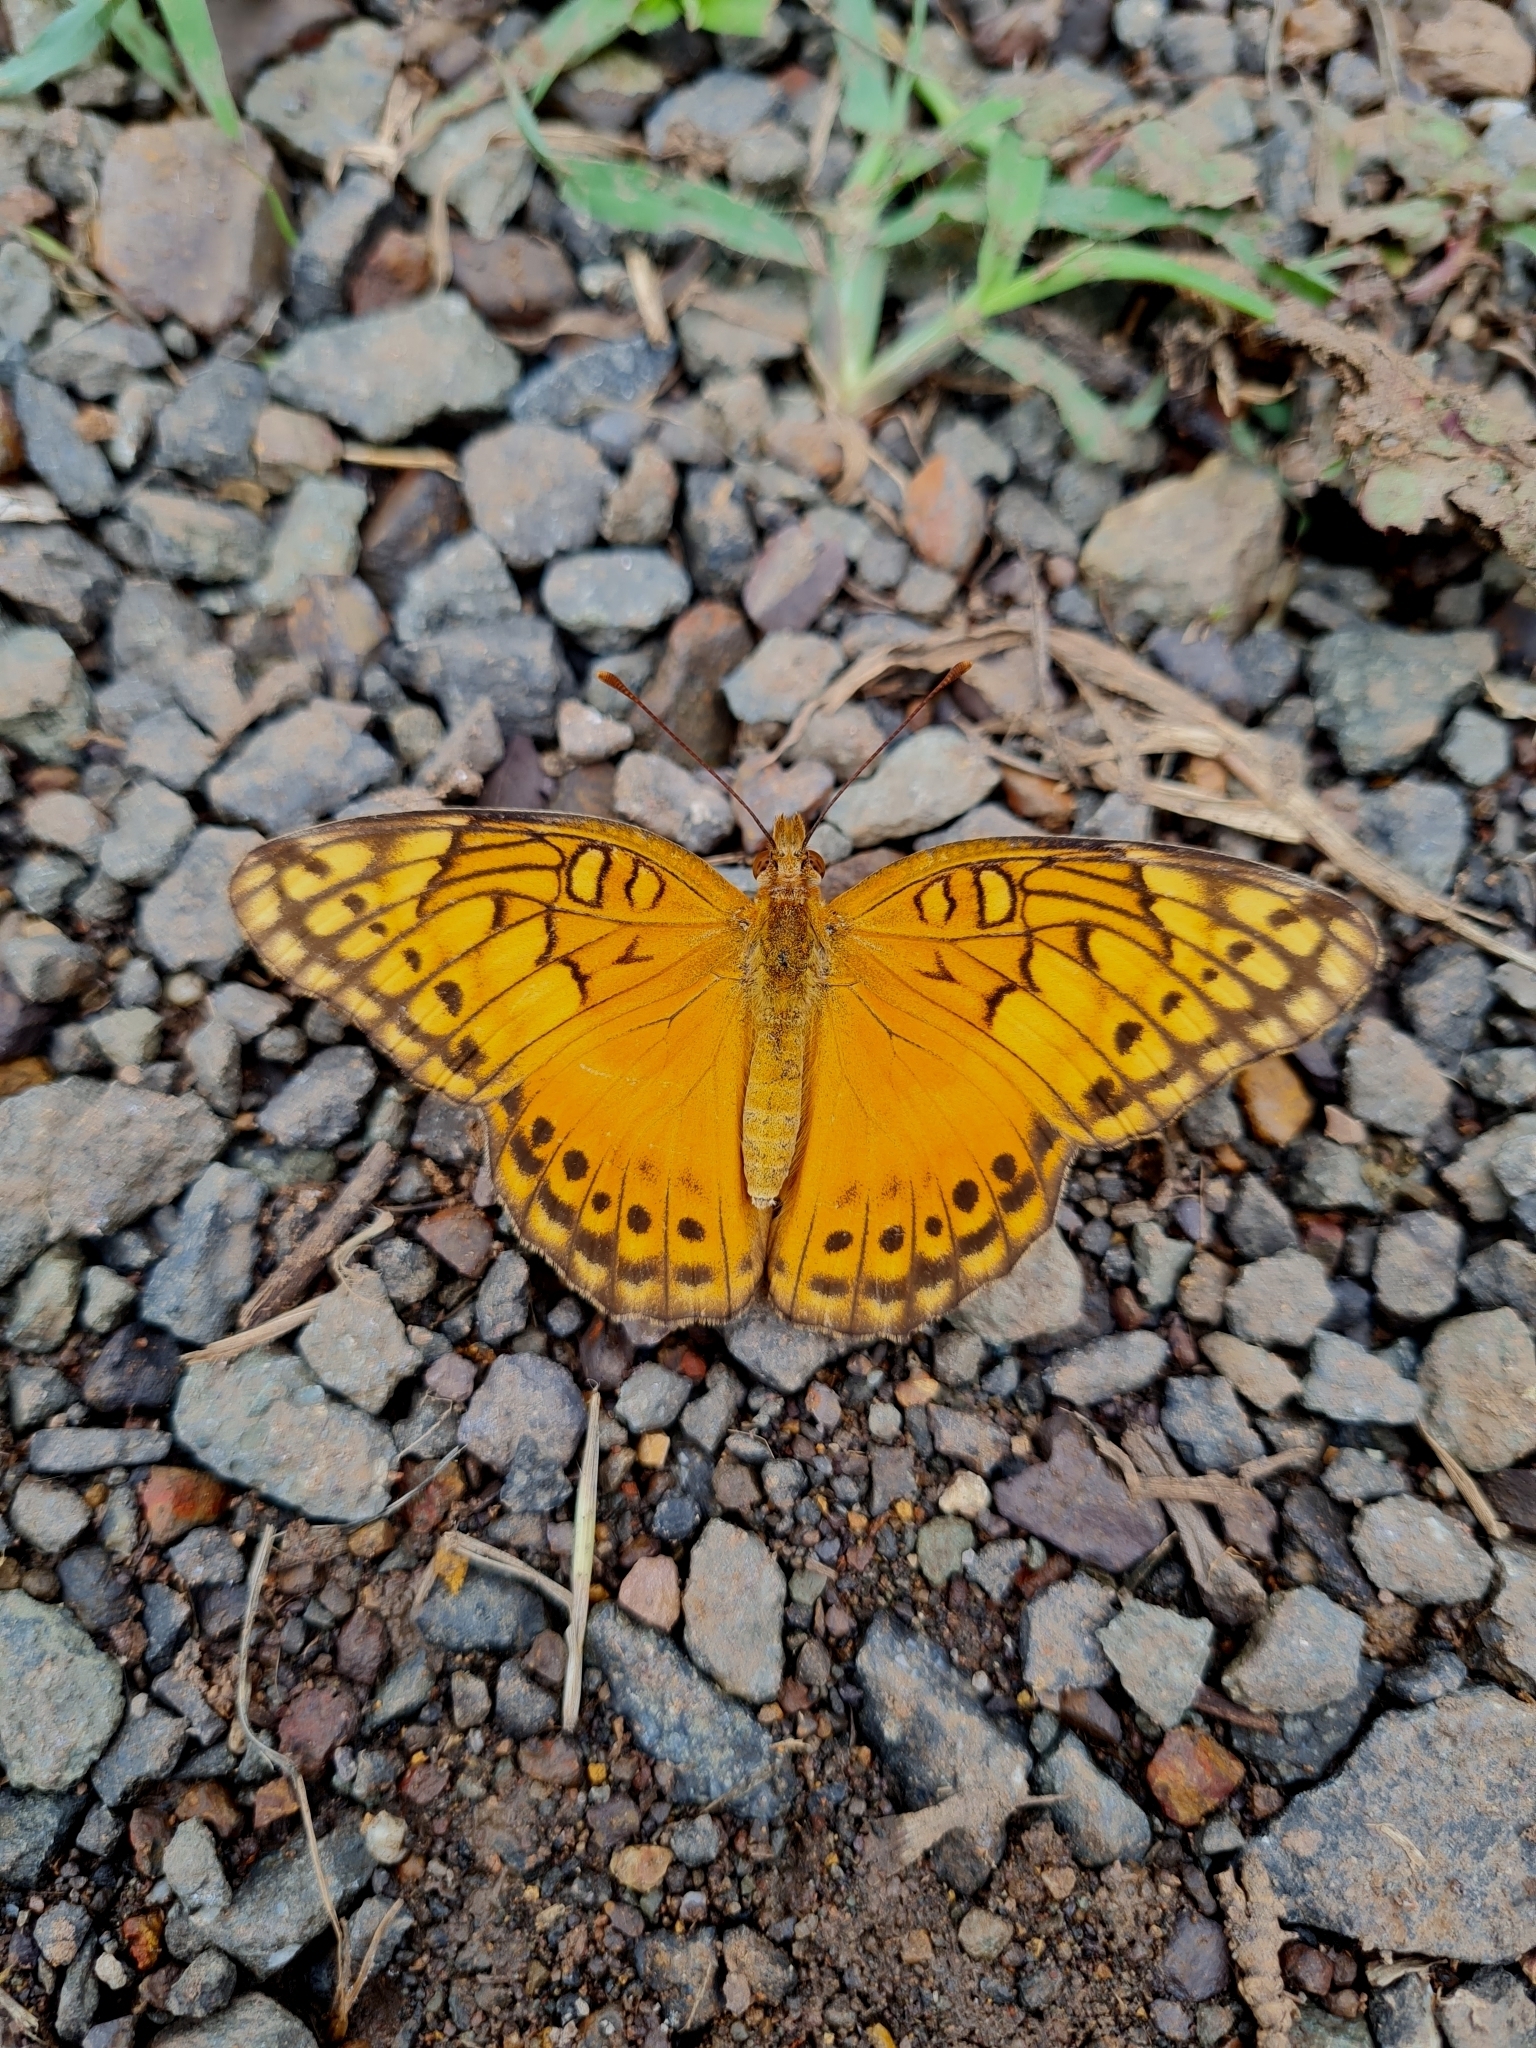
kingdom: Animalia
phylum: Arthropoda
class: Insecta
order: Lepidoptera
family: Nymphalidae
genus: Euptoieta
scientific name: Euptoieta hegesia
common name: Mexican fritillary
